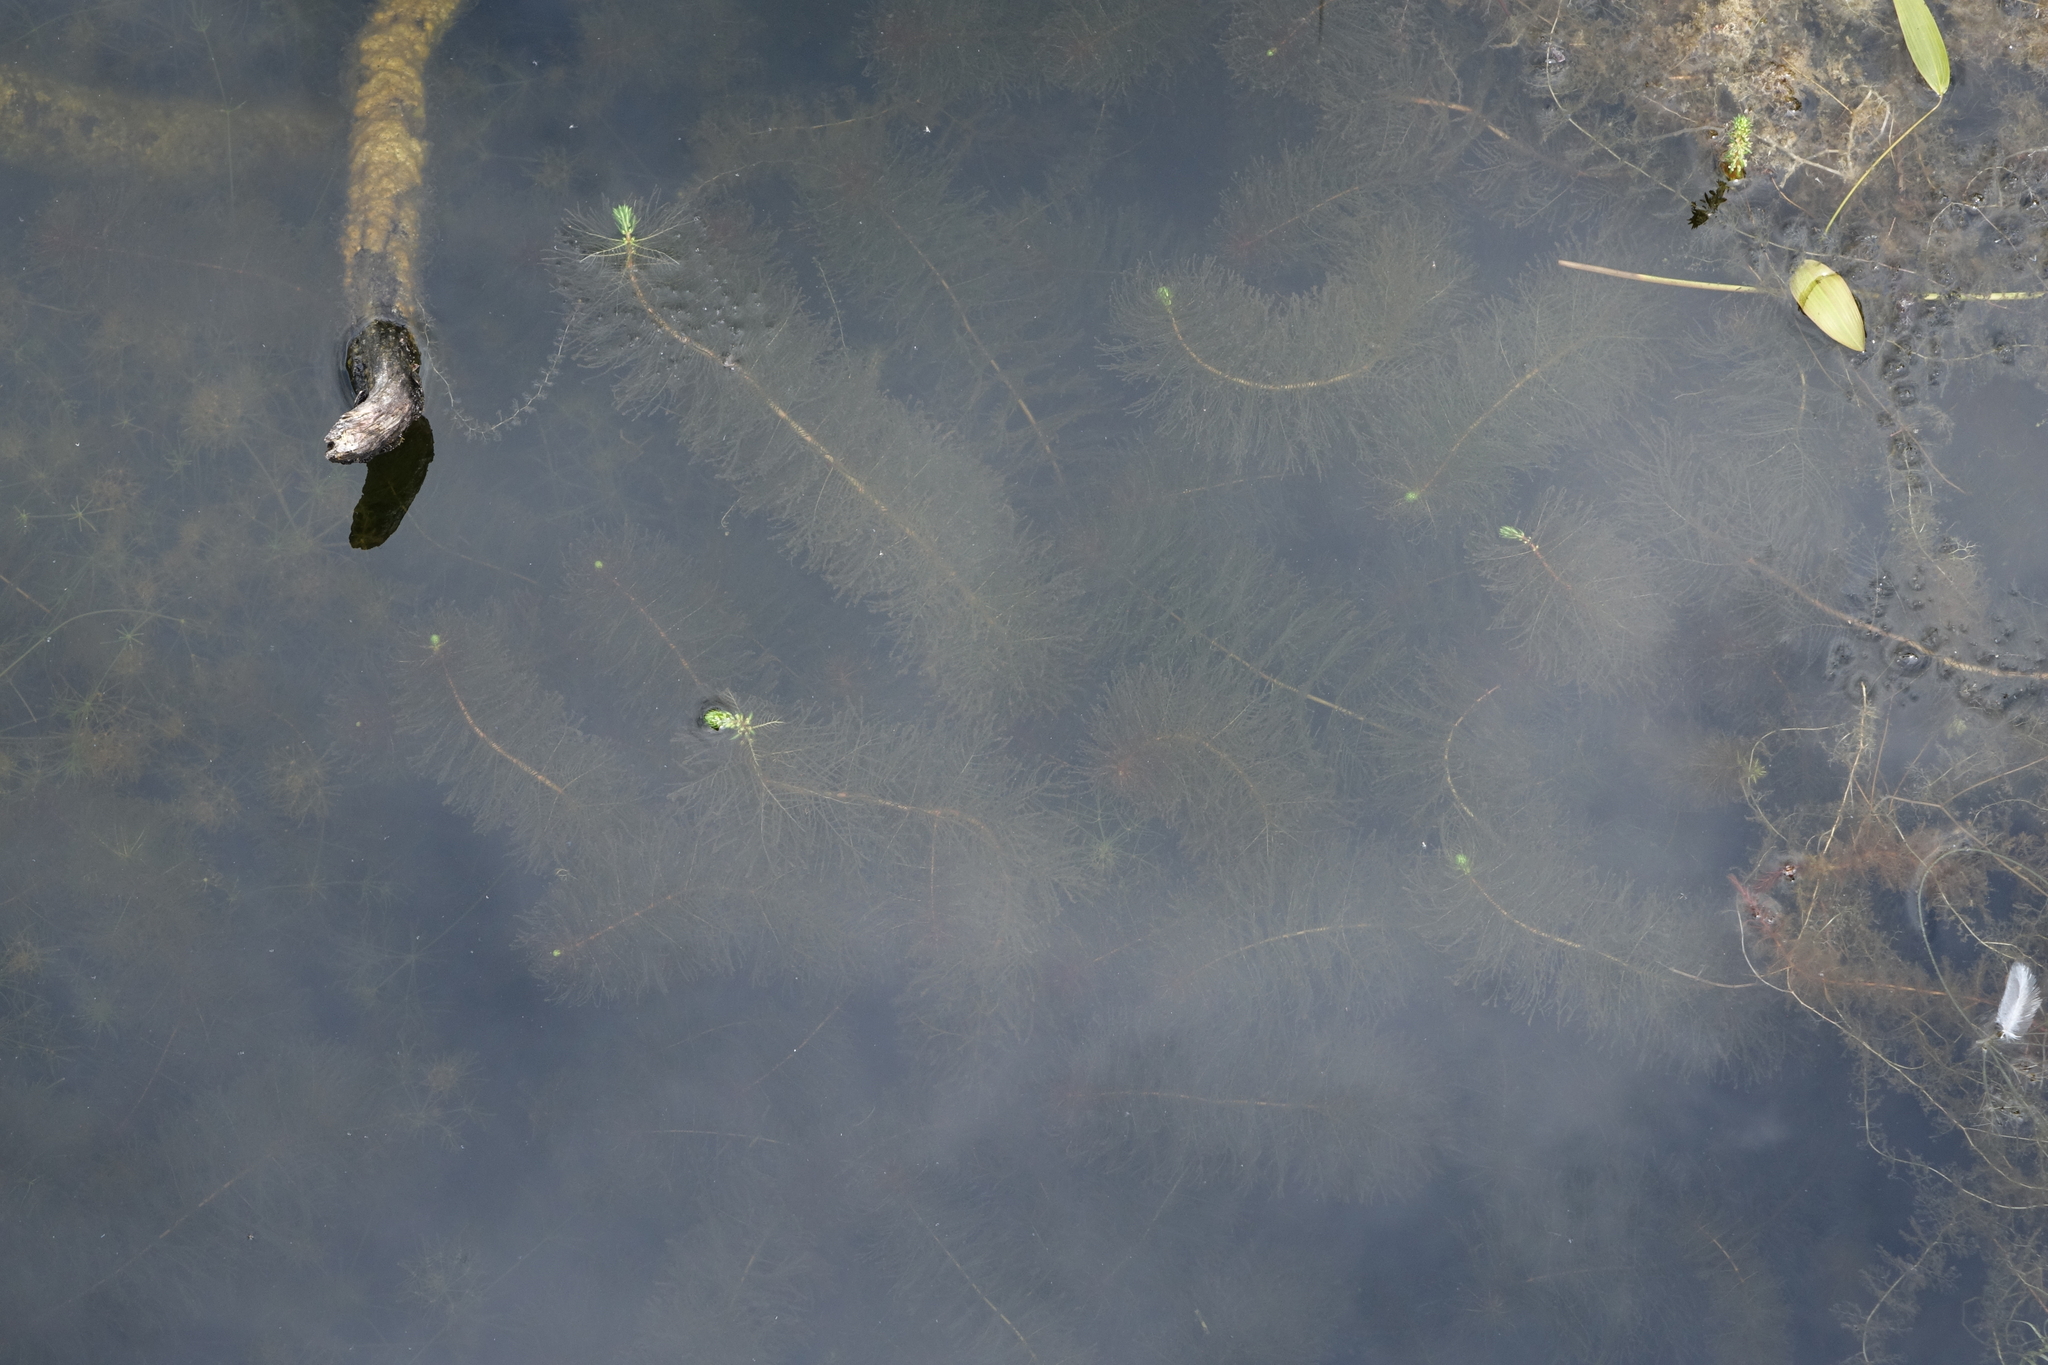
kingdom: Plantae
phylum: Tracheophyta
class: Magnoliopsida
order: Saxifragales
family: Haloragaceae
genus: Myriophyllum
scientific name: Myriophyllum verticillatum
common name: Whorled water-milfoil
